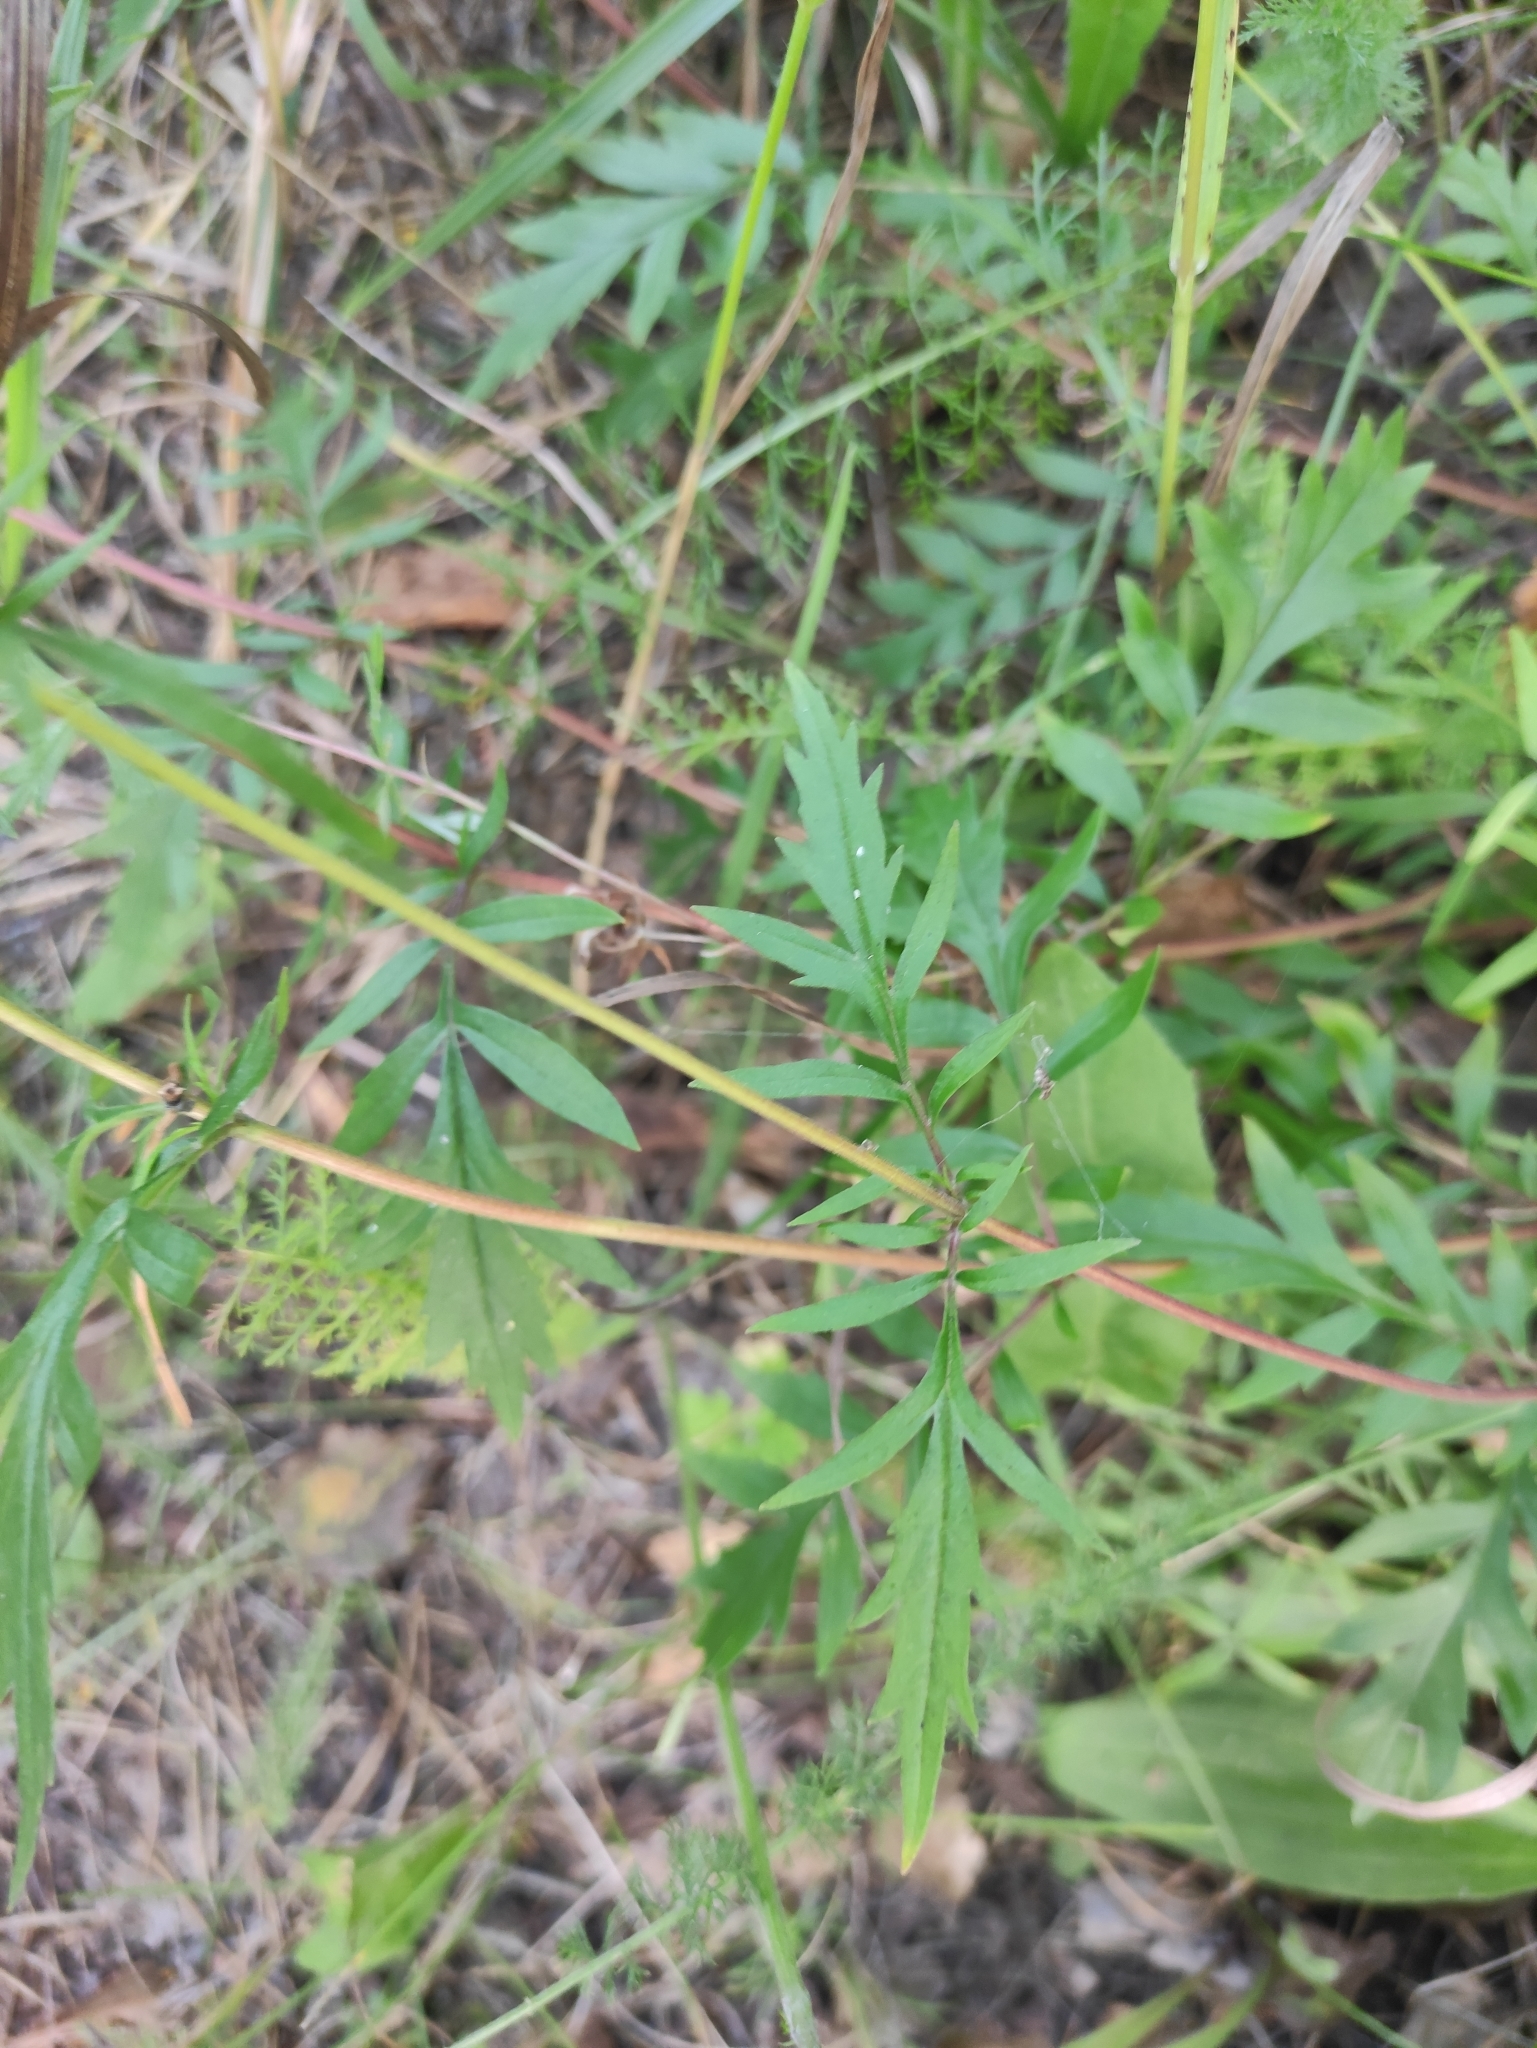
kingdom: Plantae
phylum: Tracheophyta
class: Magnoliopsida
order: Dipsacales
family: Caprifoliaceae
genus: Patrinia
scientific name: Patrinia rupestris
